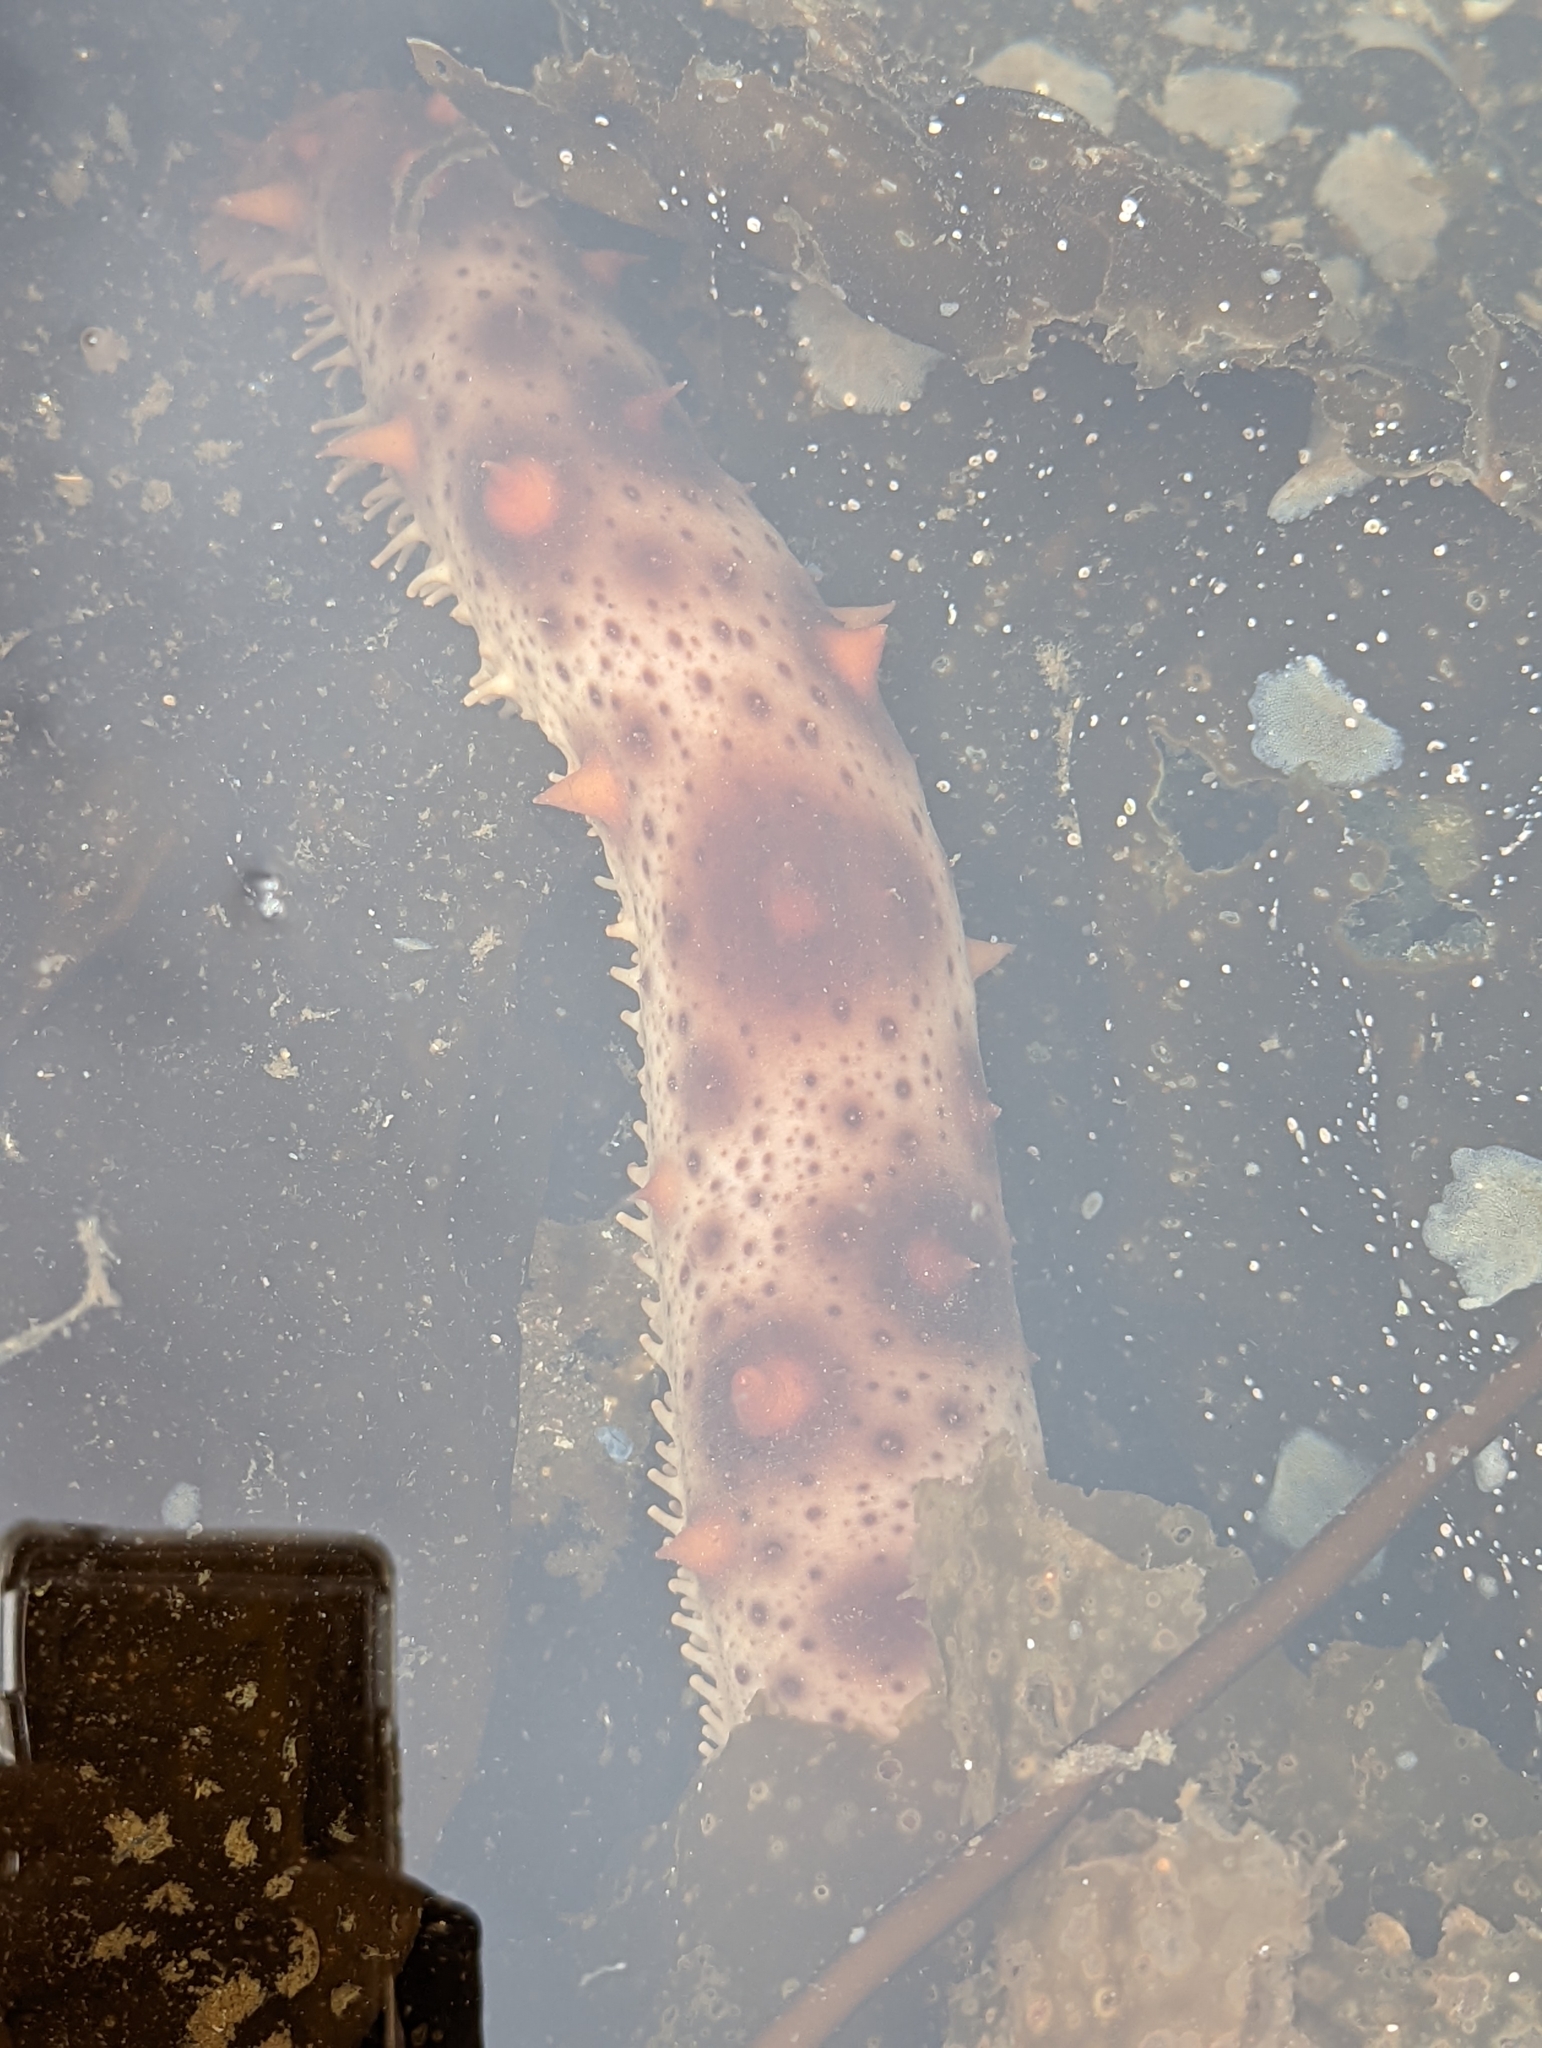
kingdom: Animalia
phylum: Echinodermata
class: Holothuroidea
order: Synallactida
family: Stichopodidae
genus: Apostichopus
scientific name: Apostichopus californicus
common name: California sea cucumber
